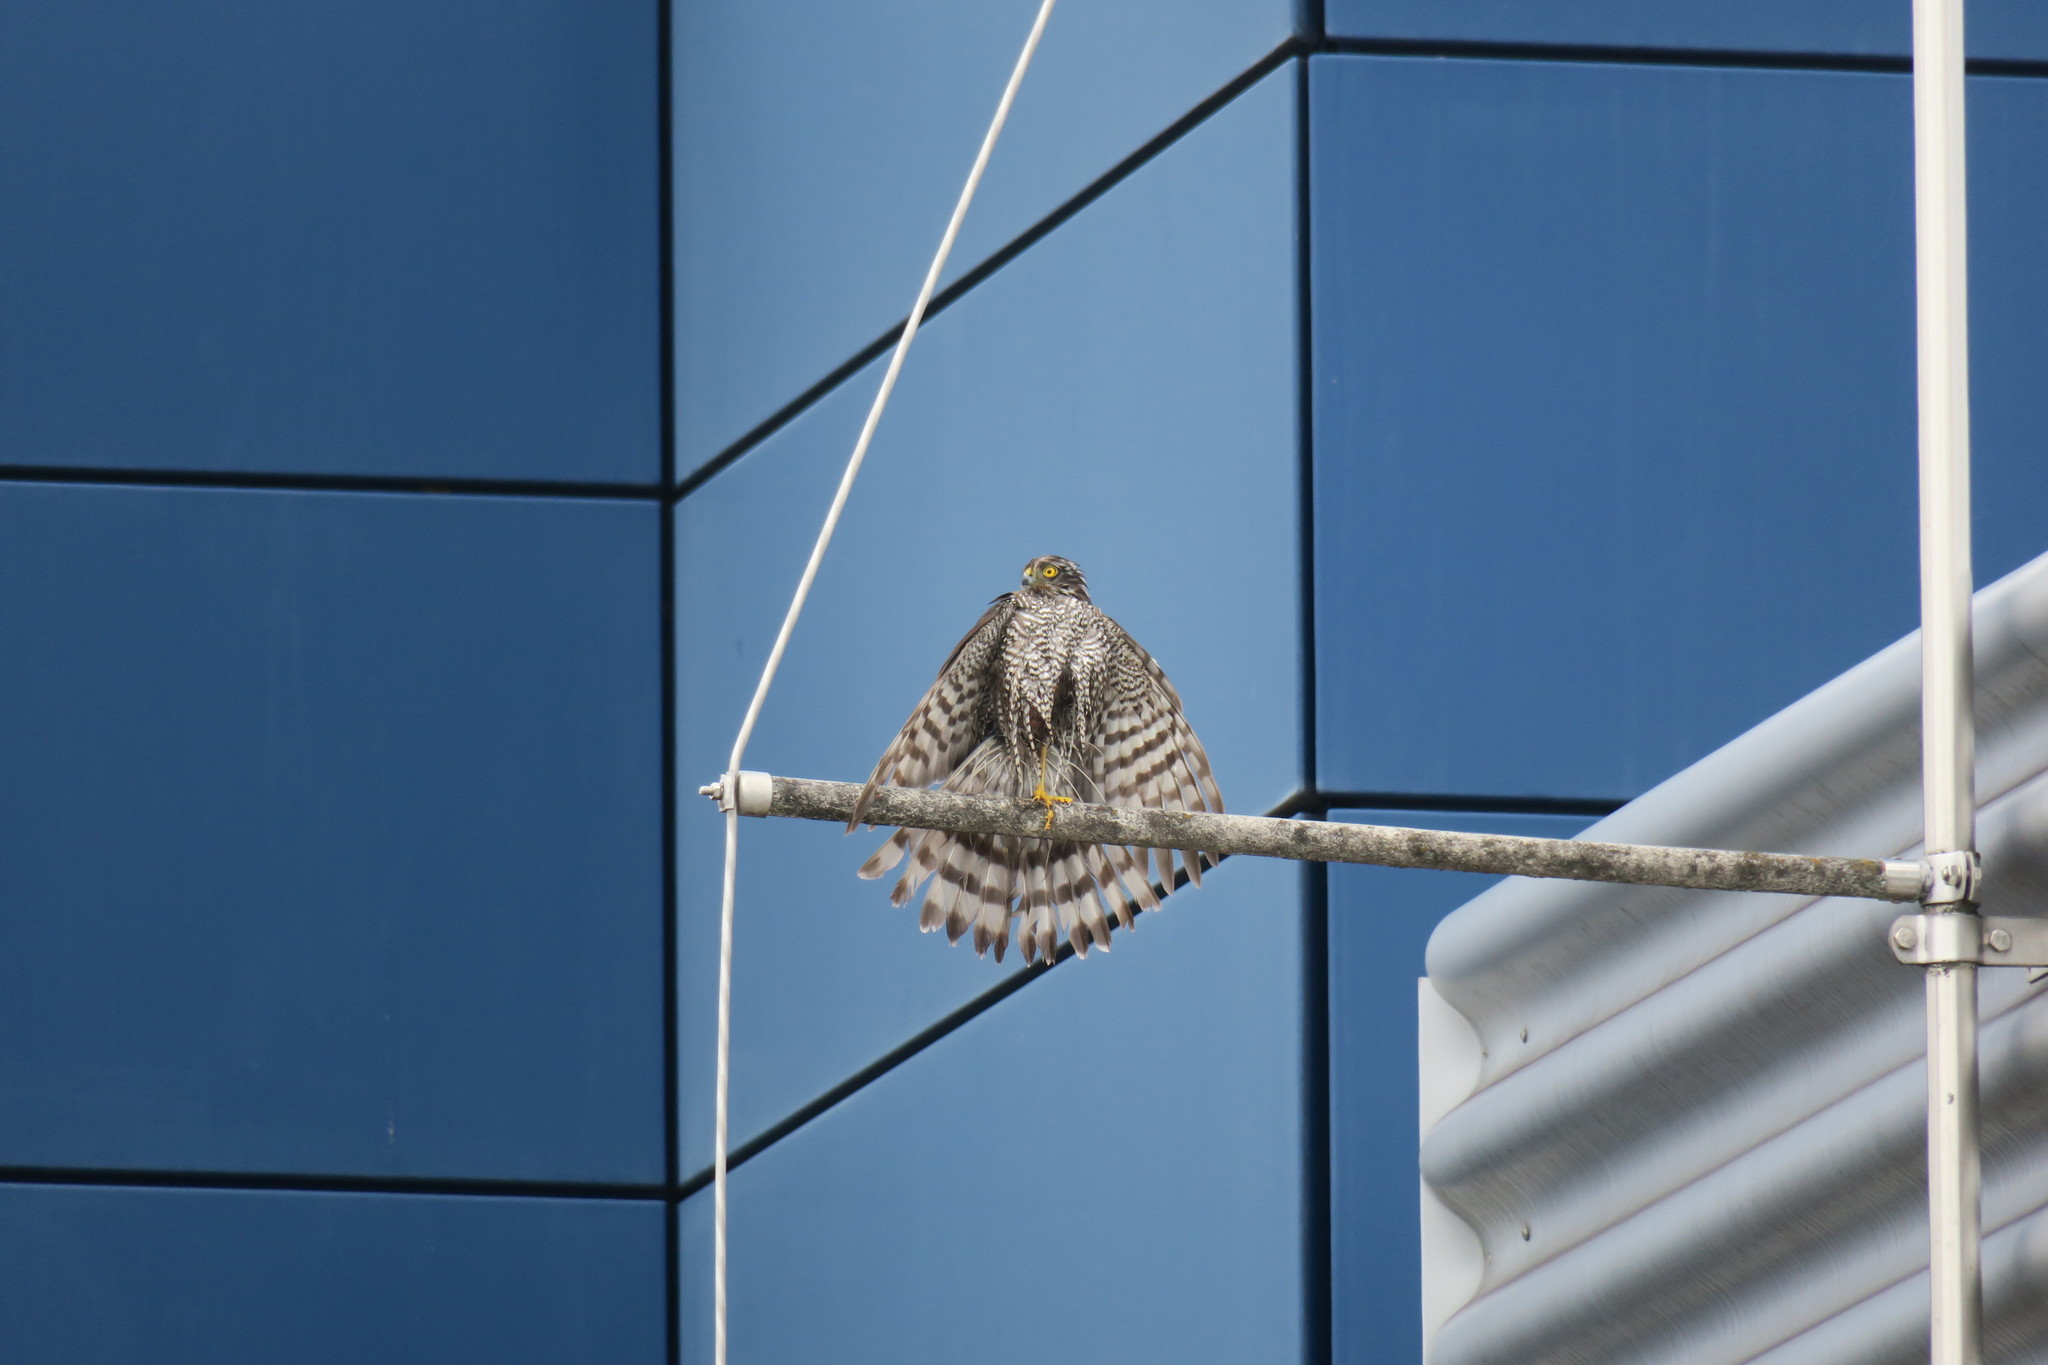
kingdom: Animalia
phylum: Chordata
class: Aves
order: Accipitriformes
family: Accipitridae
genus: Accipiter
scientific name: Accipiter nisus
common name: Eurasian sparrowhawk
